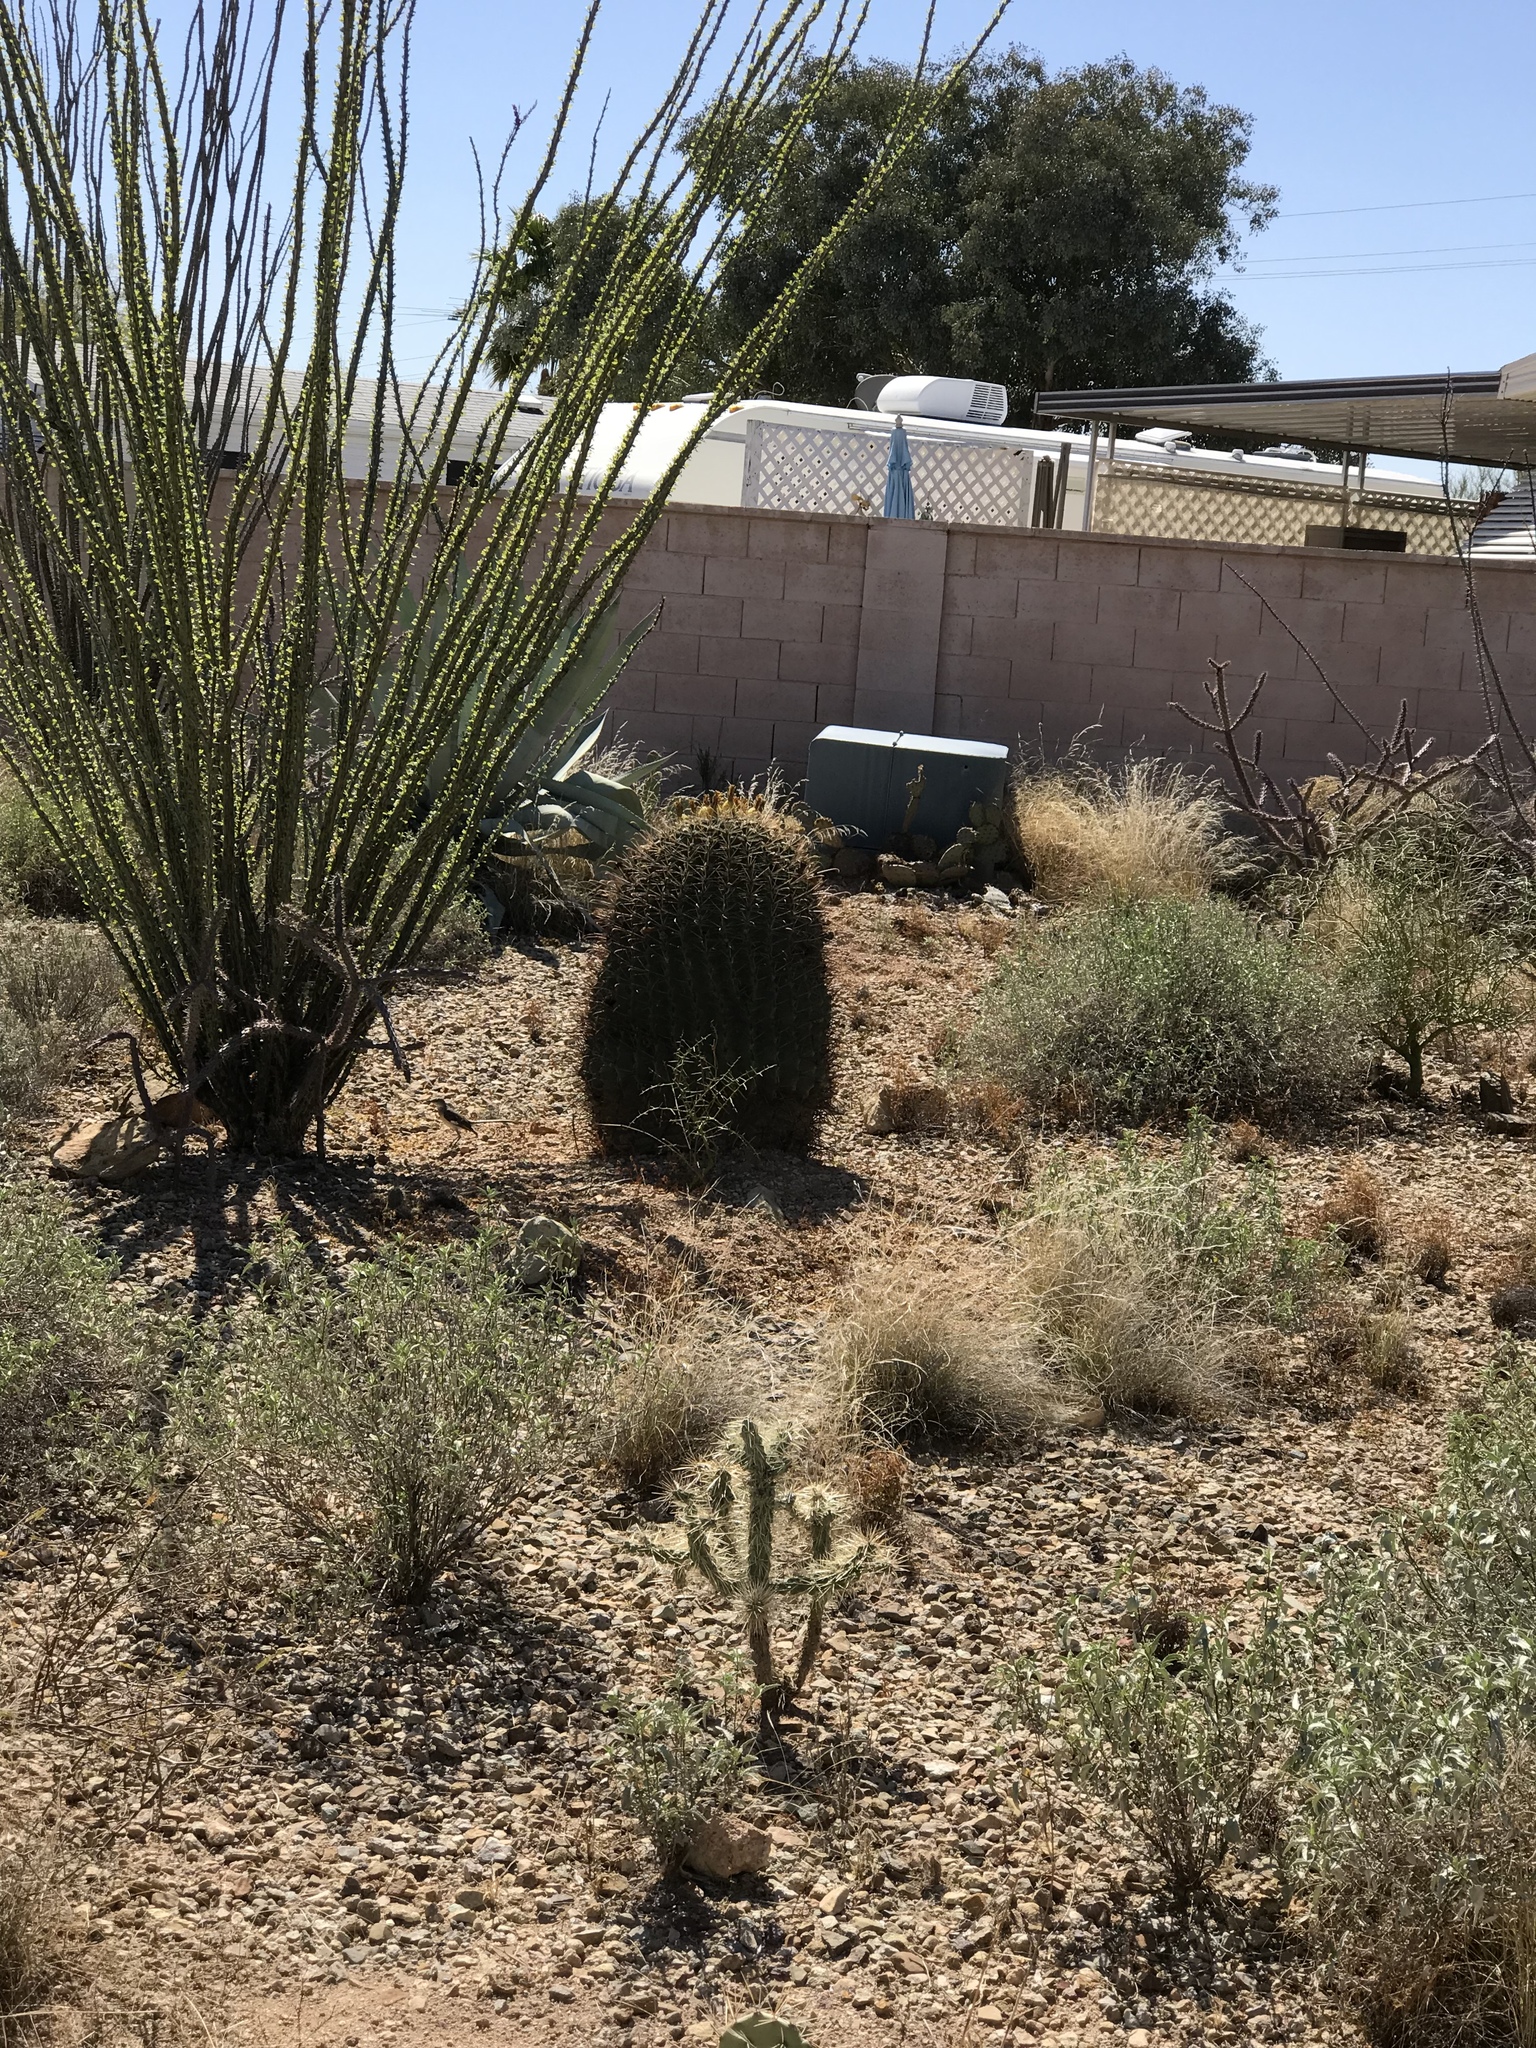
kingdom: Plantae
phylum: Tracheophyta
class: Magnoliopsida
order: Caryophyllales
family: Cactaceae
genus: Ferocactus
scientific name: Ferocactus wislizeni
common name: Candy barrel cactus
